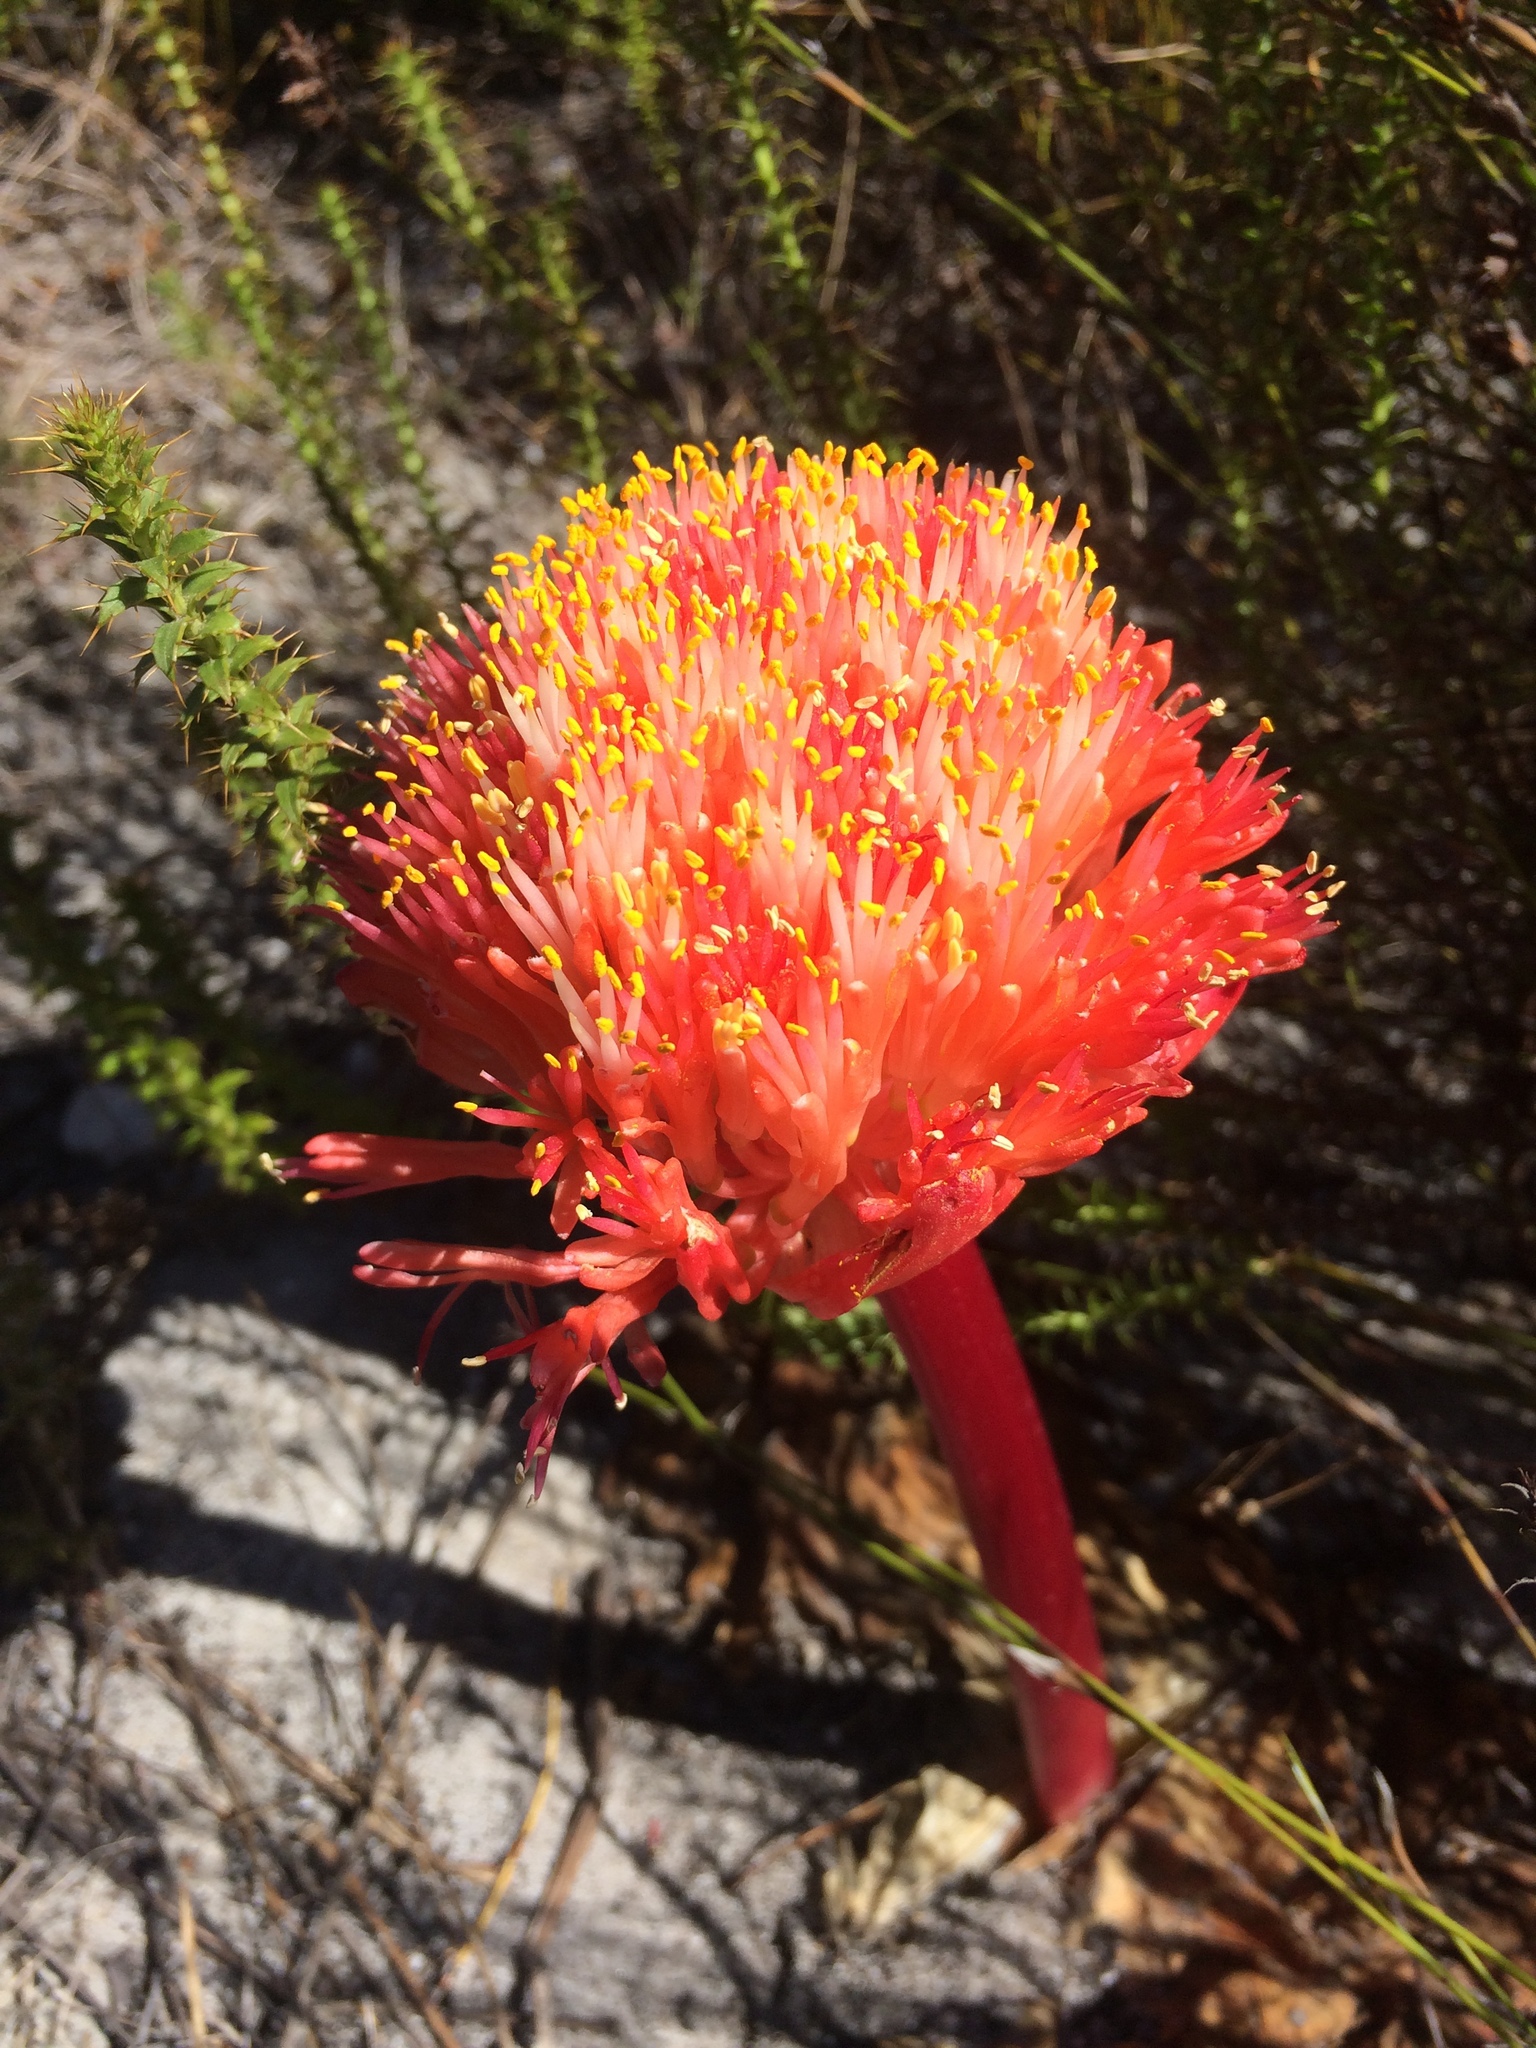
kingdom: Plantae
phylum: Tracheophyta
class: Liliopsida
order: Asparagales
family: Amaryllidaceae
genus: Haemanthus
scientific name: Haemanthus sanguineus
